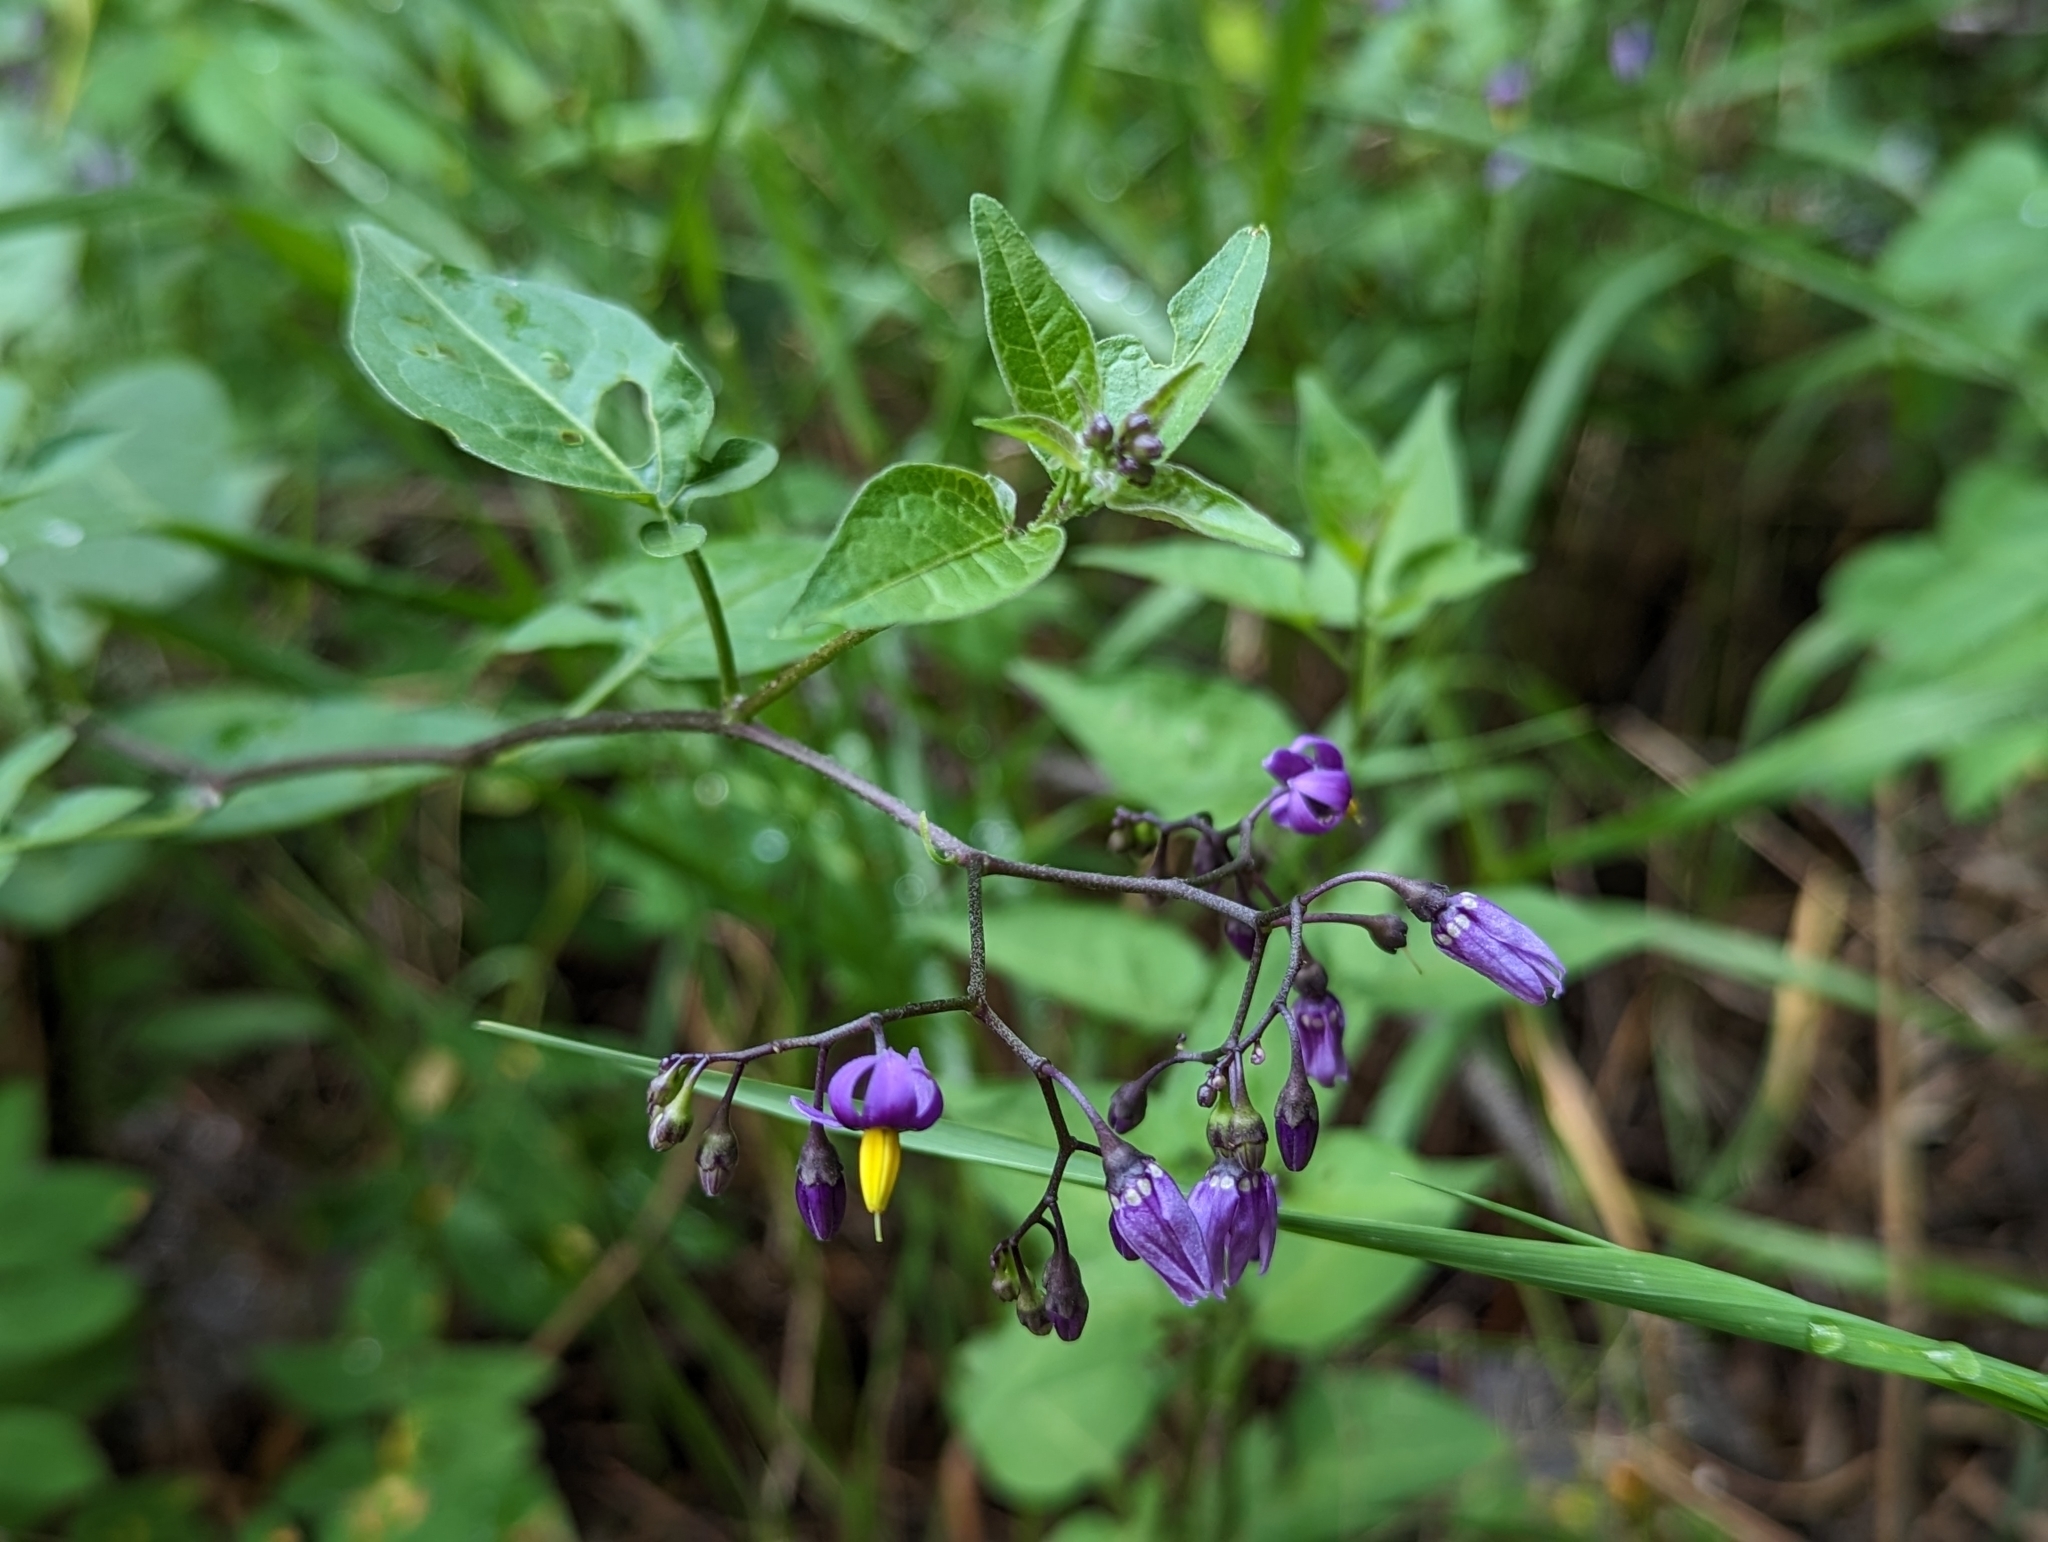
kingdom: Plantae
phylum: Tracheophyta
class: Magnoliopsida
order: Solanales
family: Solanaceae
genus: Solanum
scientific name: Solanum dulcamara
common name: Climbing nightshade
